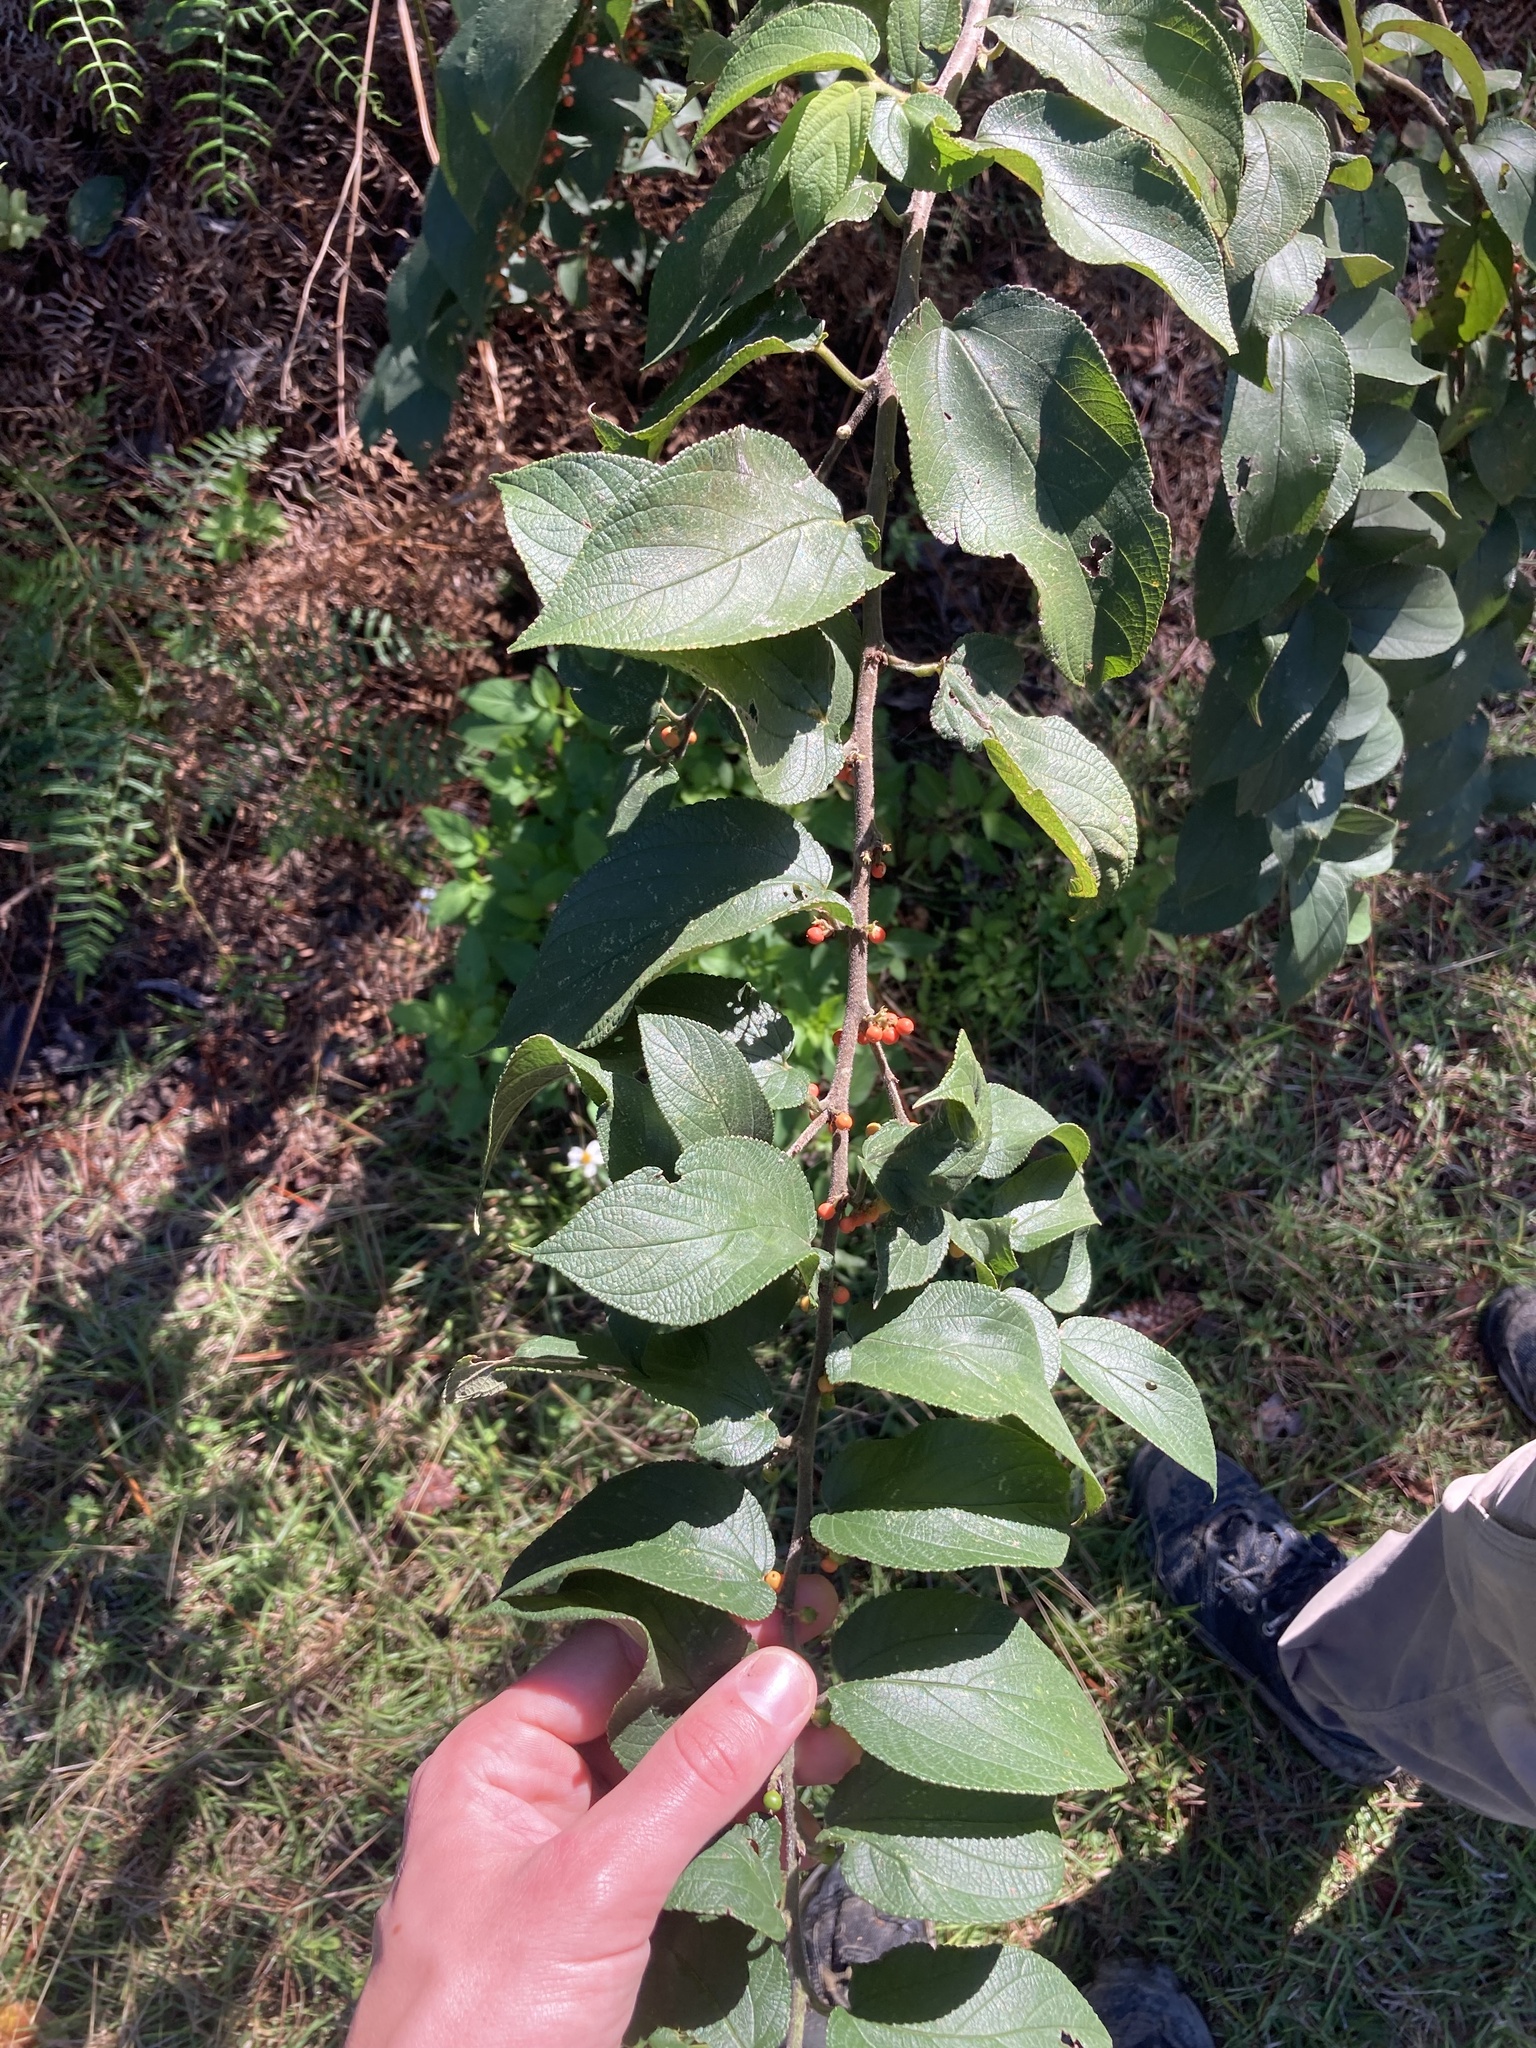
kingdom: Plantae
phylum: Tracheophyta
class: Magnoliopsida
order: Rosales
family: Cannabaceae
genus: Trema
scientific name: Trema micranthum
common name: Jamaican nettletree
